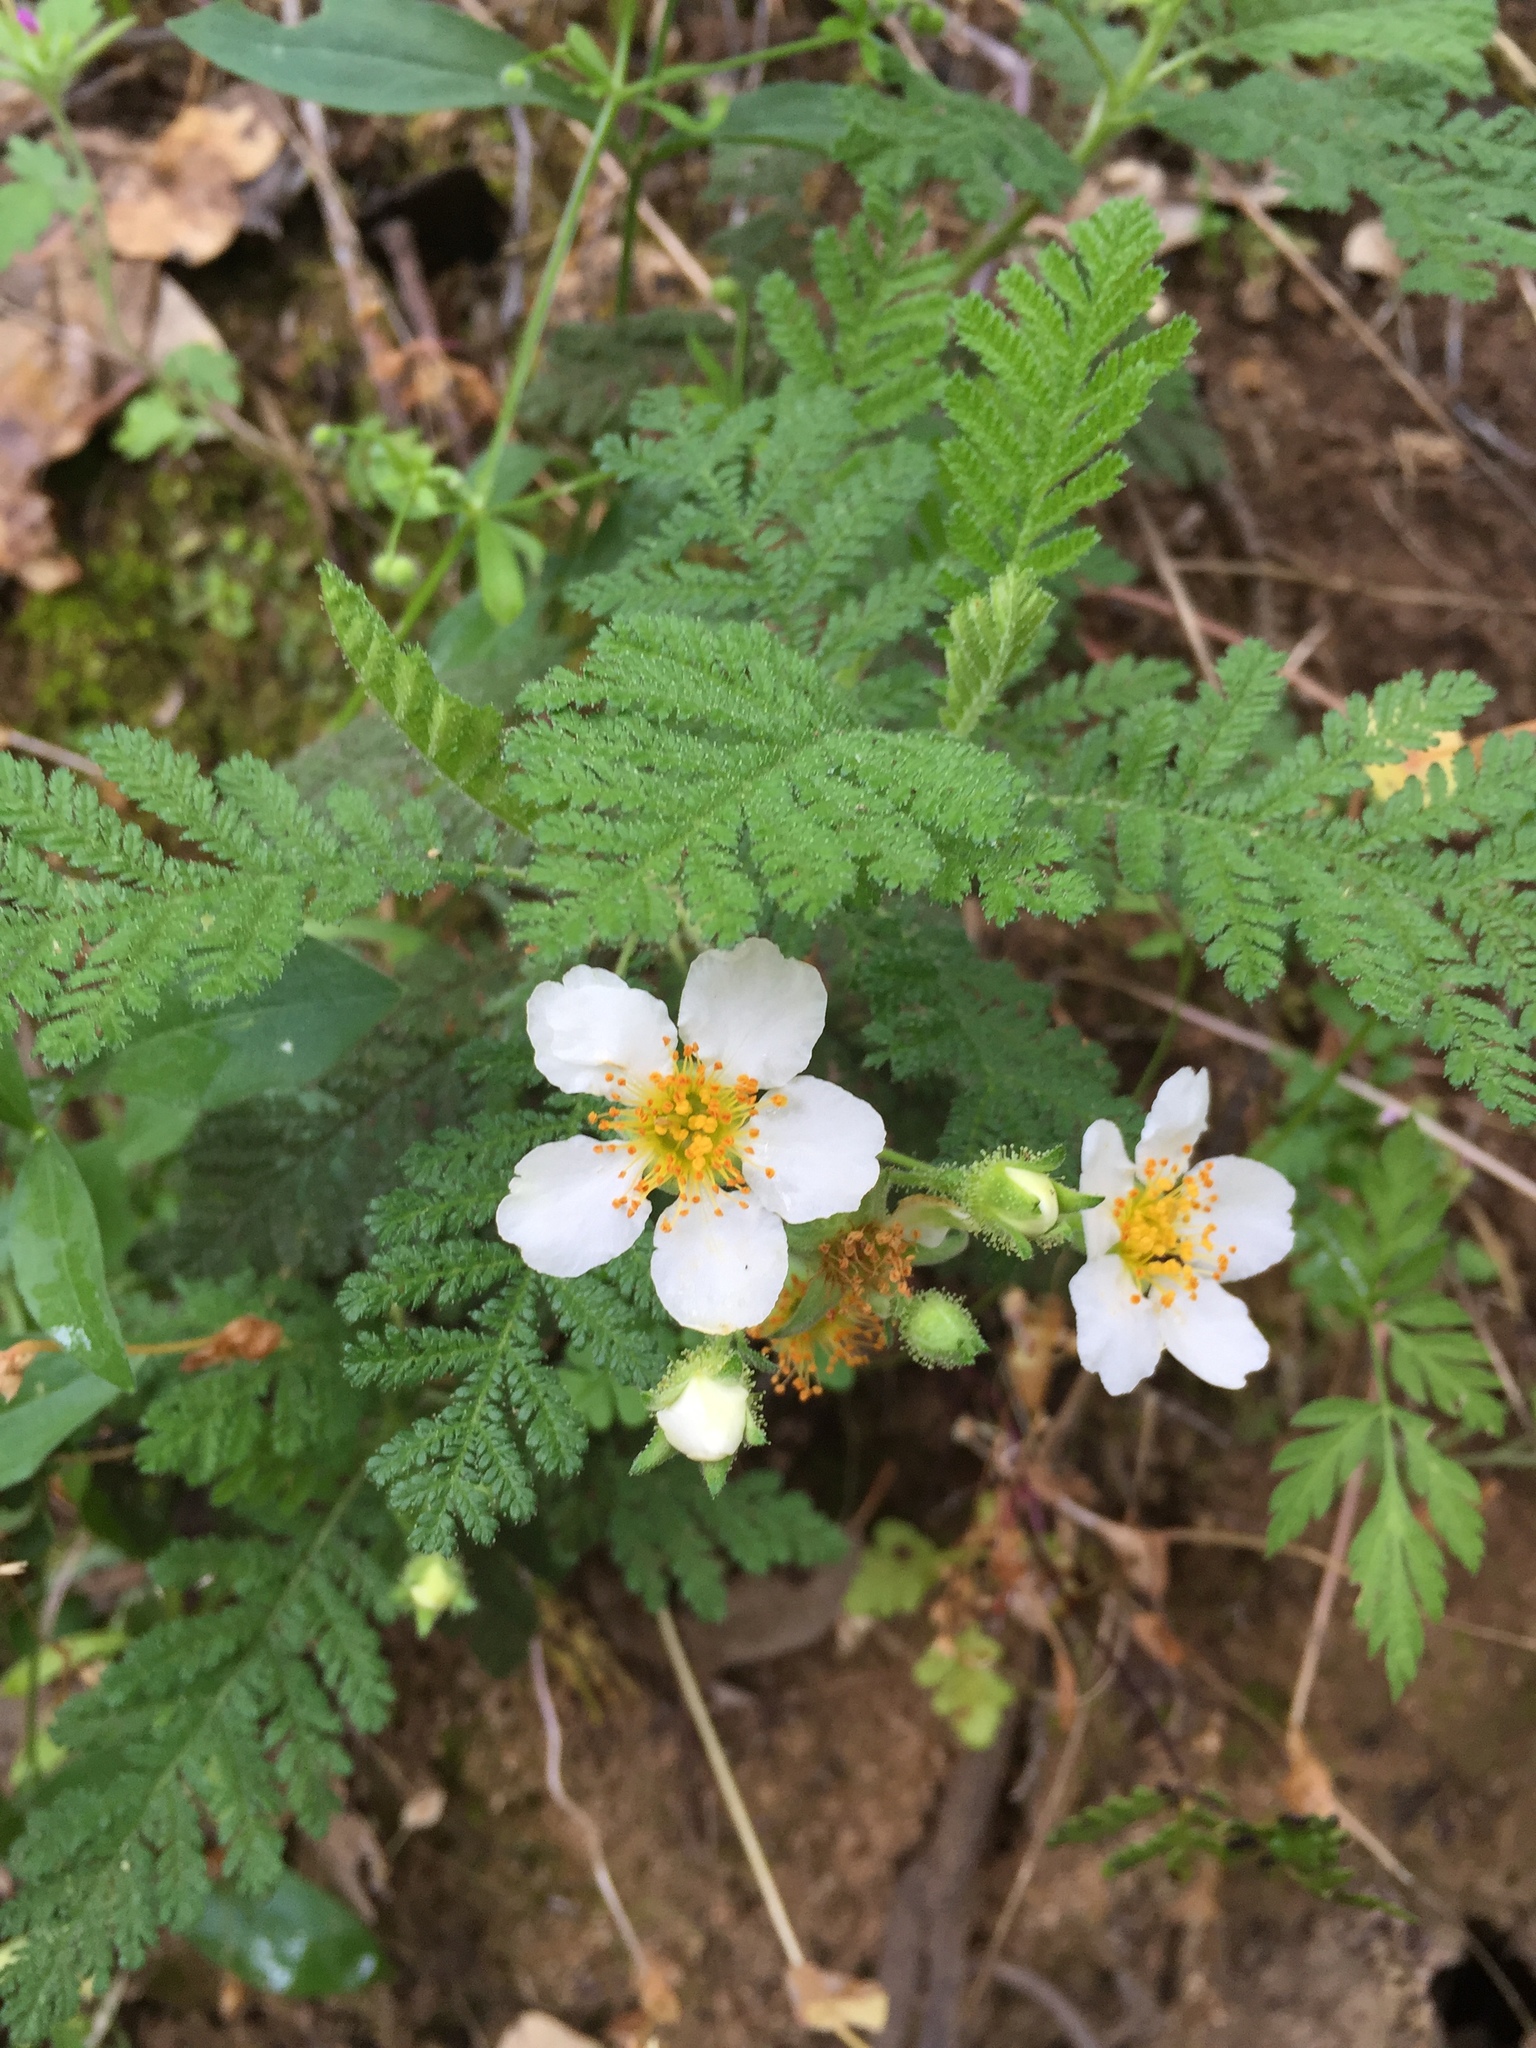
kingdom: Plantae
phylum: Tracheophyta
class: Magnoliopsida
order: Rosales
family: Rosaceae
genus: Chamaebatia
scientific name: Chamaebatia foliolosa
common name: Mountain misery
